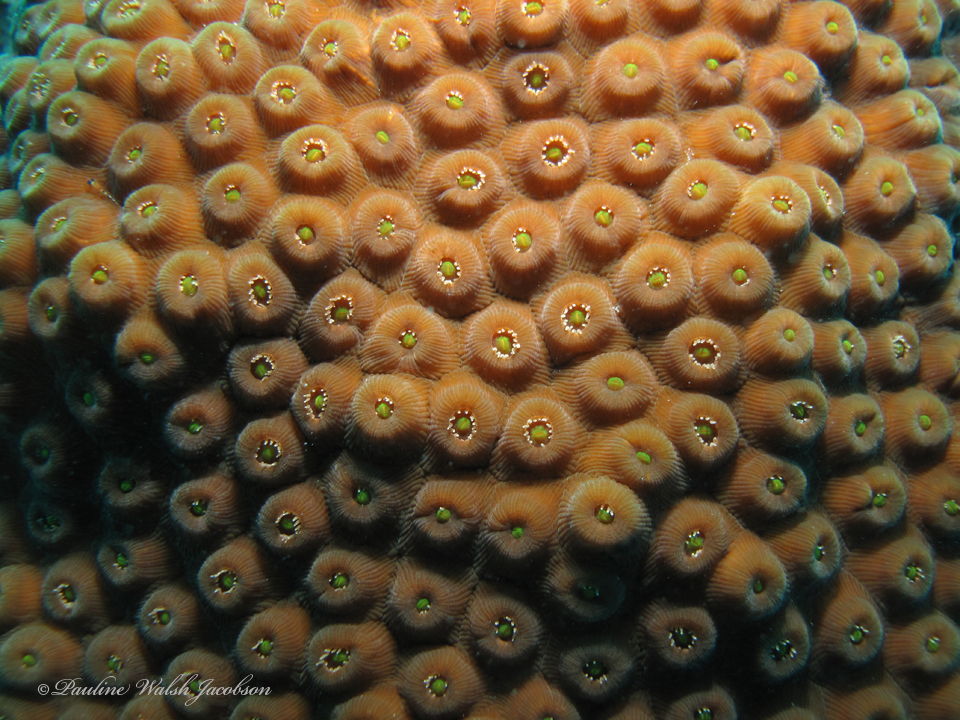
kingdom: Animalia
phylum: Cnidaria
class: Anthozoa
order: Scleractinia
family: Montastraeidae
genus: Montastraea
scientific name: Montastraea cavernosa
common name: Great star coral
